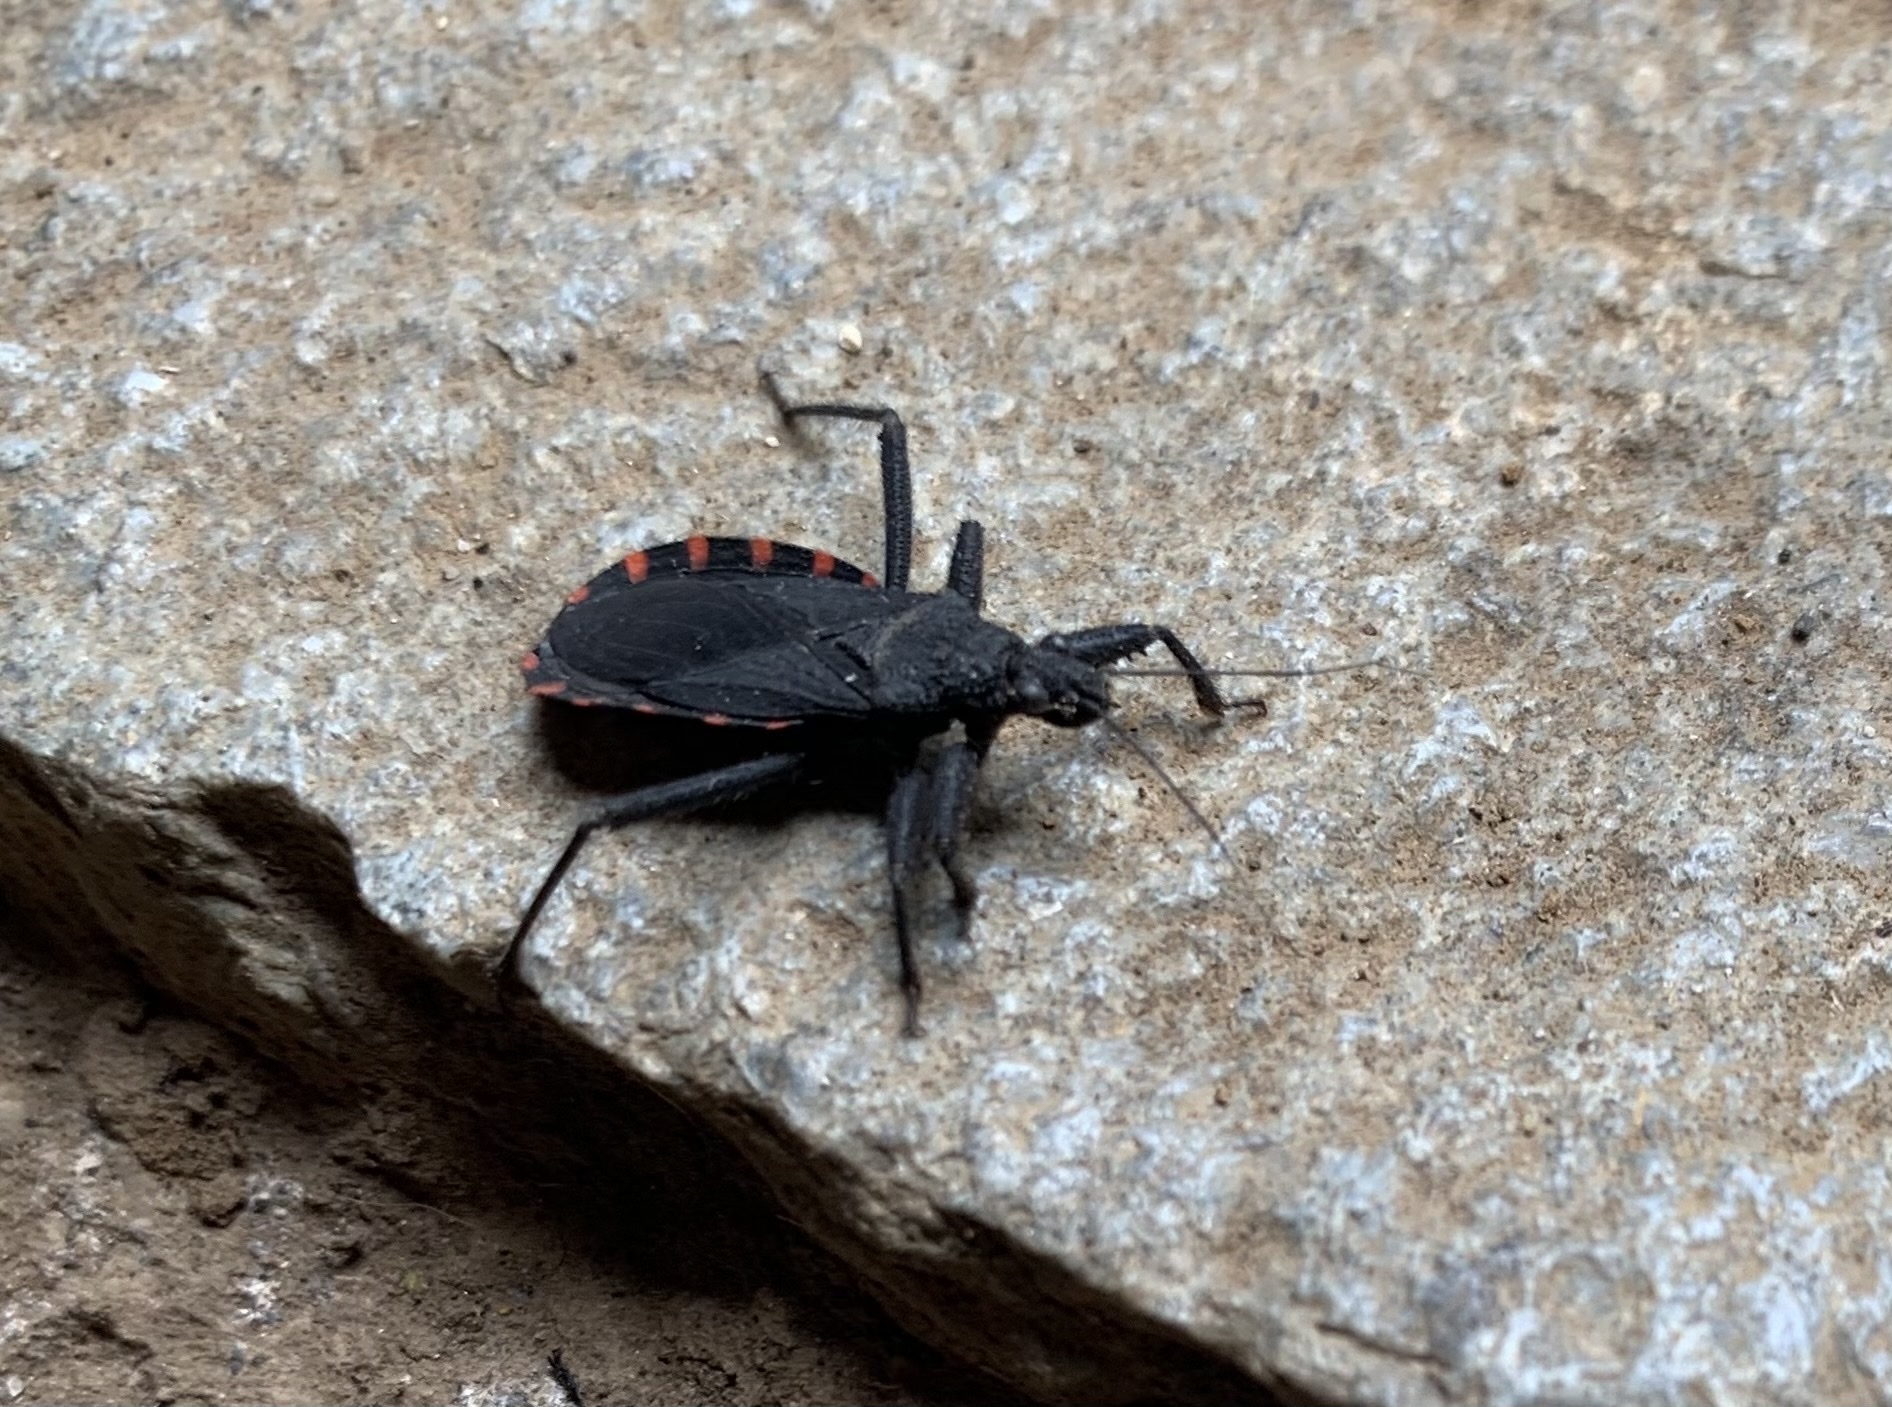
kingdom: Animalia
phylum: Arthropoda
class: Insecta
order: Hemiptera
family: Reduviidae
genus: Microtomus
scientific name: Microtomus gayi
